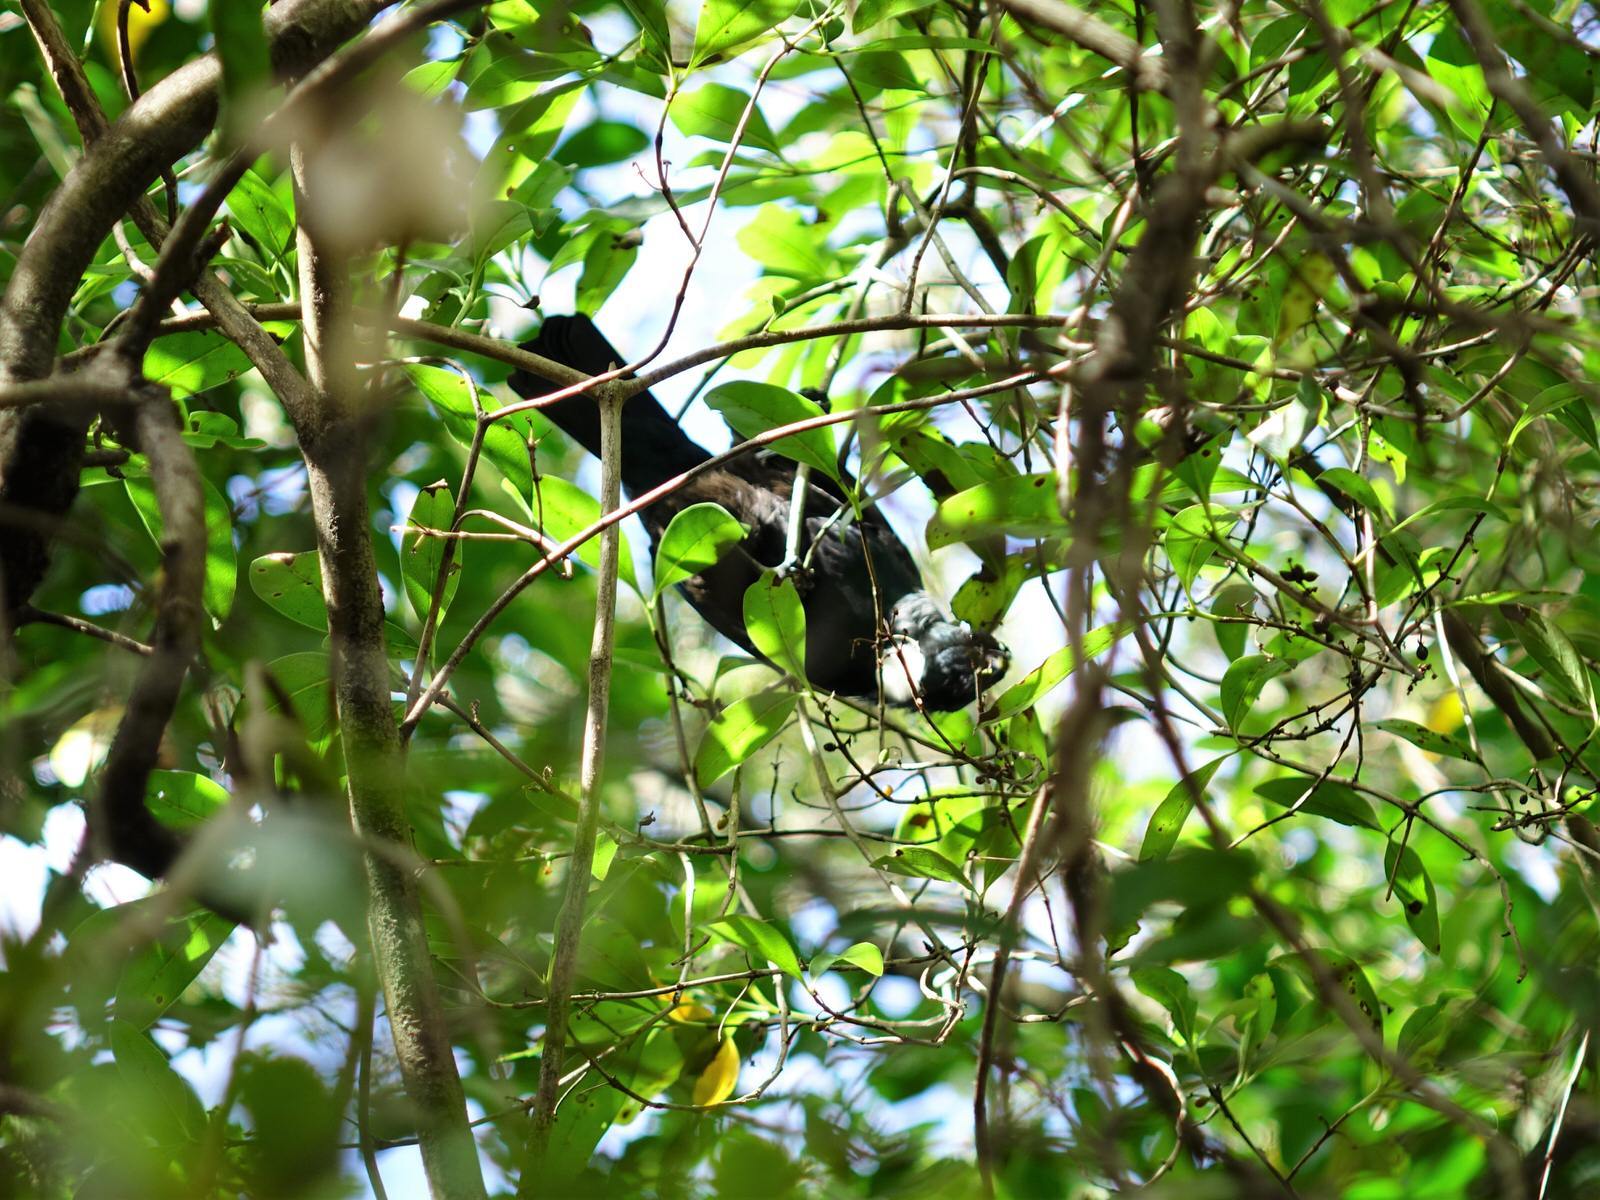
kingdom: Animalia
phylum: Chordata
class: Aves
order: Passeriformes
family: Meliphagidae
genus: Prosthemadera
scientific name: Prosthemadera novaeseelandiae
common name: Tui
